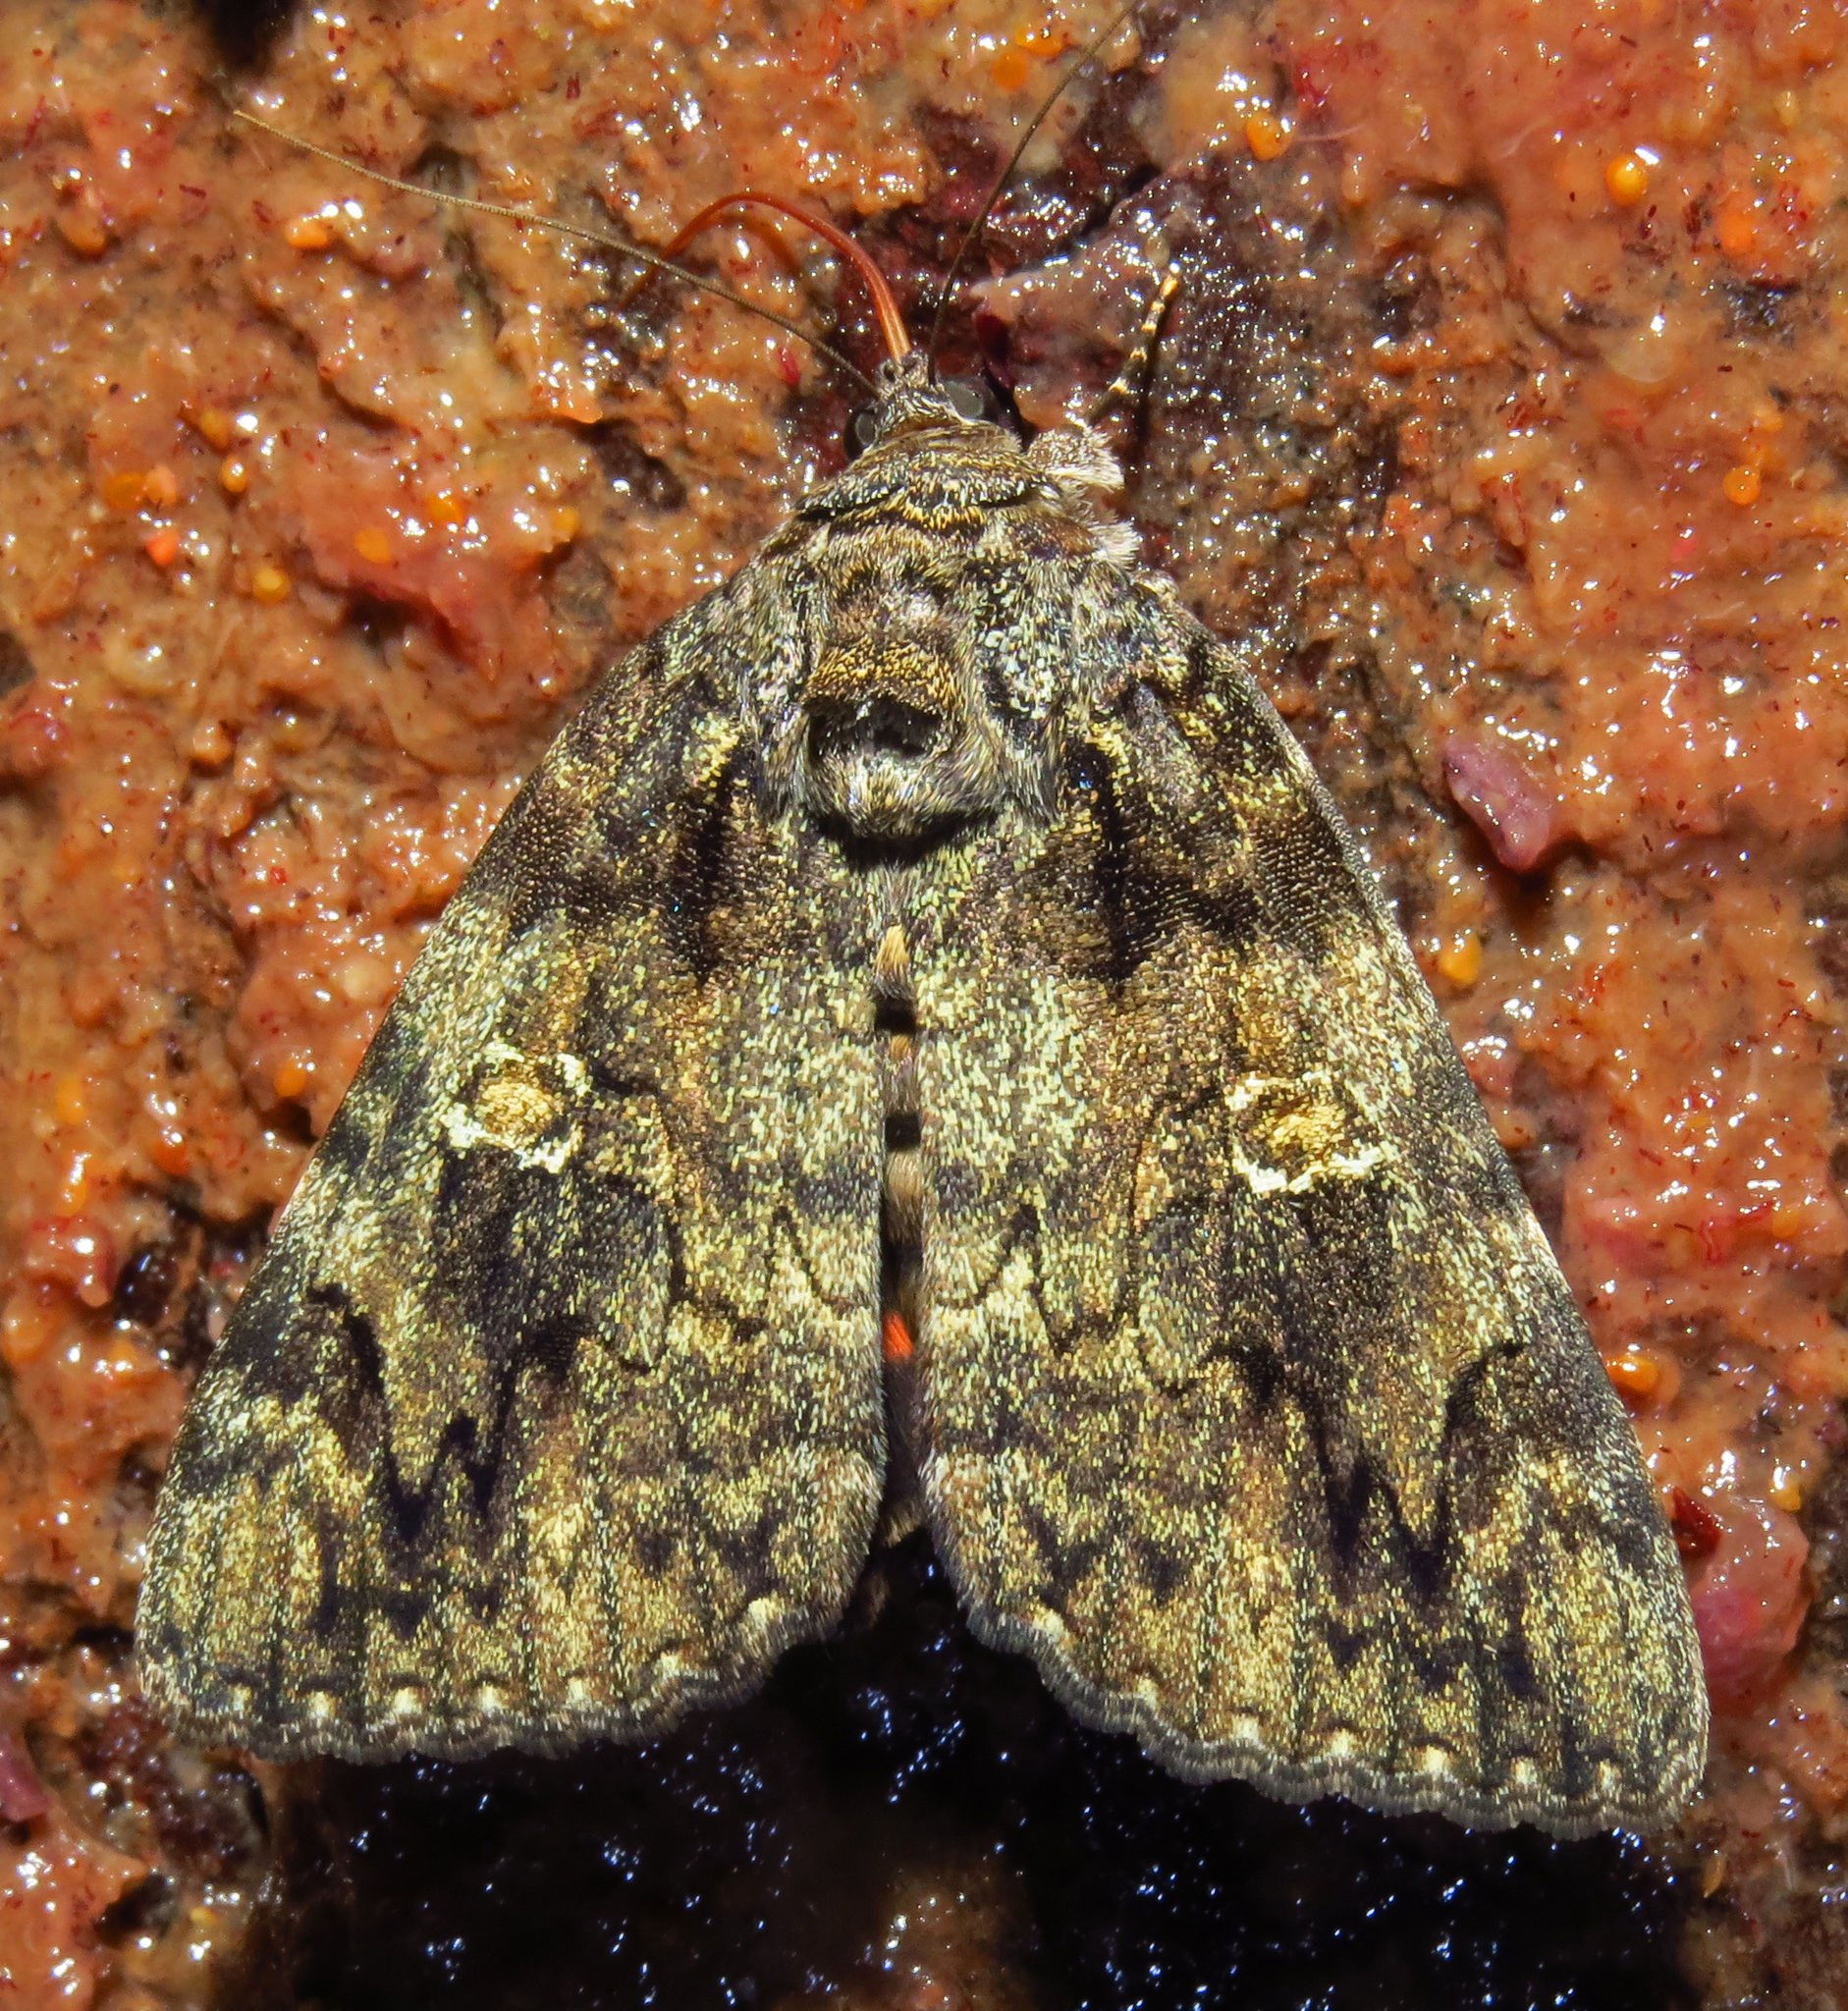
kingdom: Animalia
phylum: Arthropoda
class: Insecta
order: Lepidoptera
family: Erebidae
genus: Catocala
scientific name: Catocala ilia
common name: Ilia underwing
